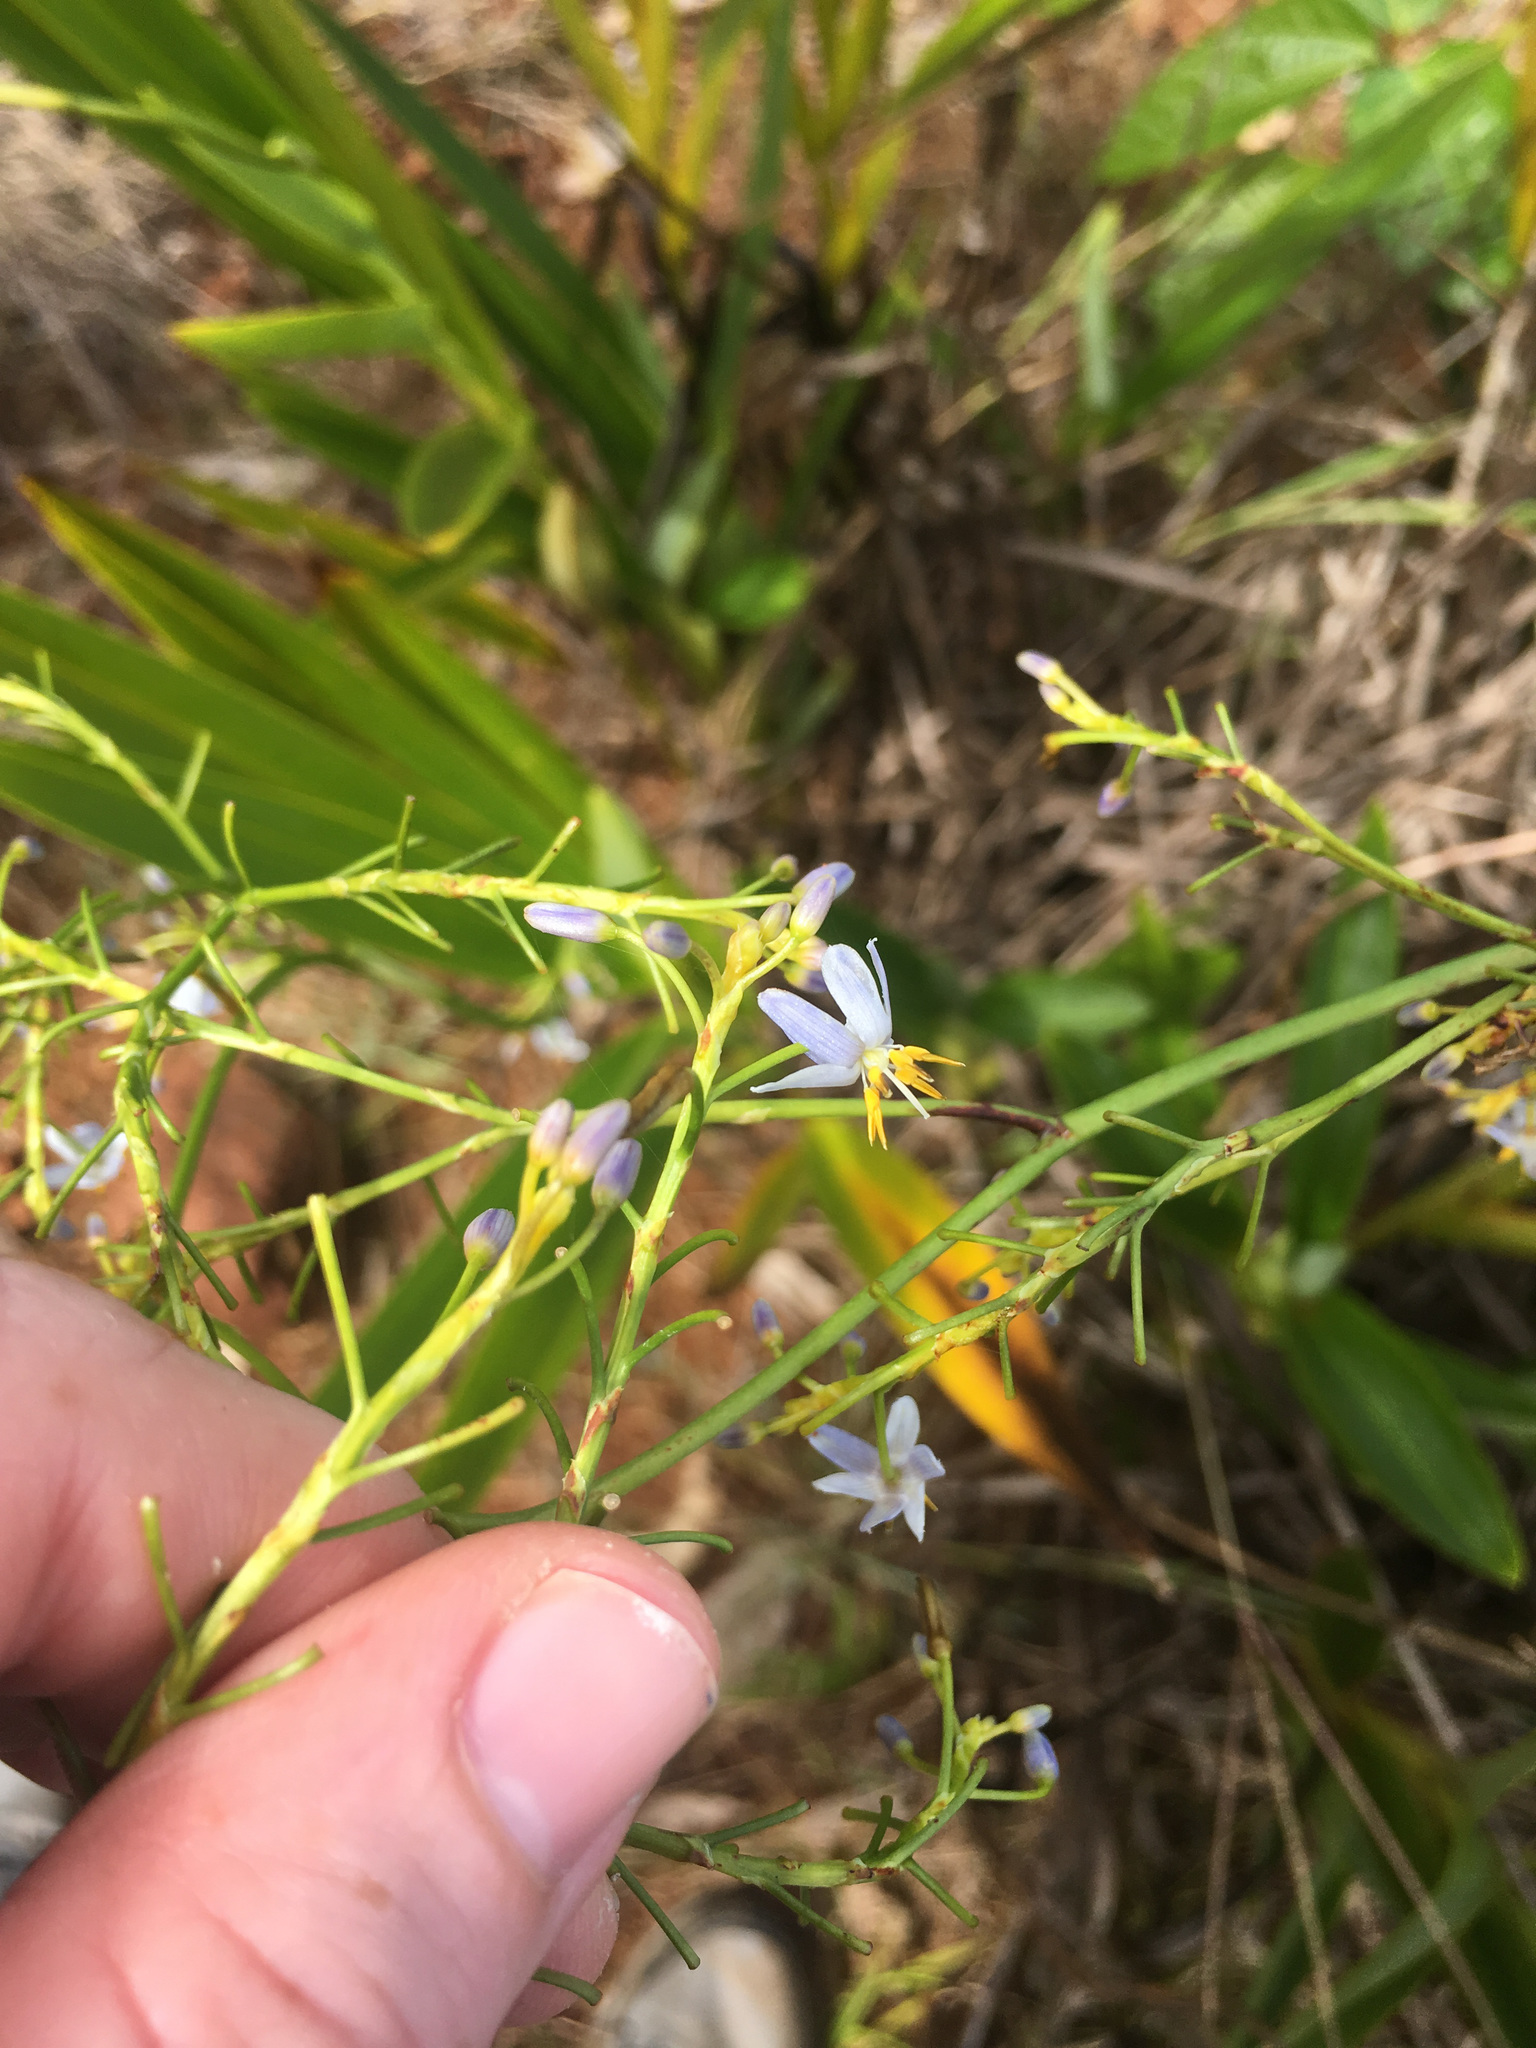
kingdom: Plantae
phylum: Tracheophyta
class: Liliopsida
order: Asparagales
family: Asphodelaceae
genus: Rhuacophila
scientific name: Rhuacophila javanica
